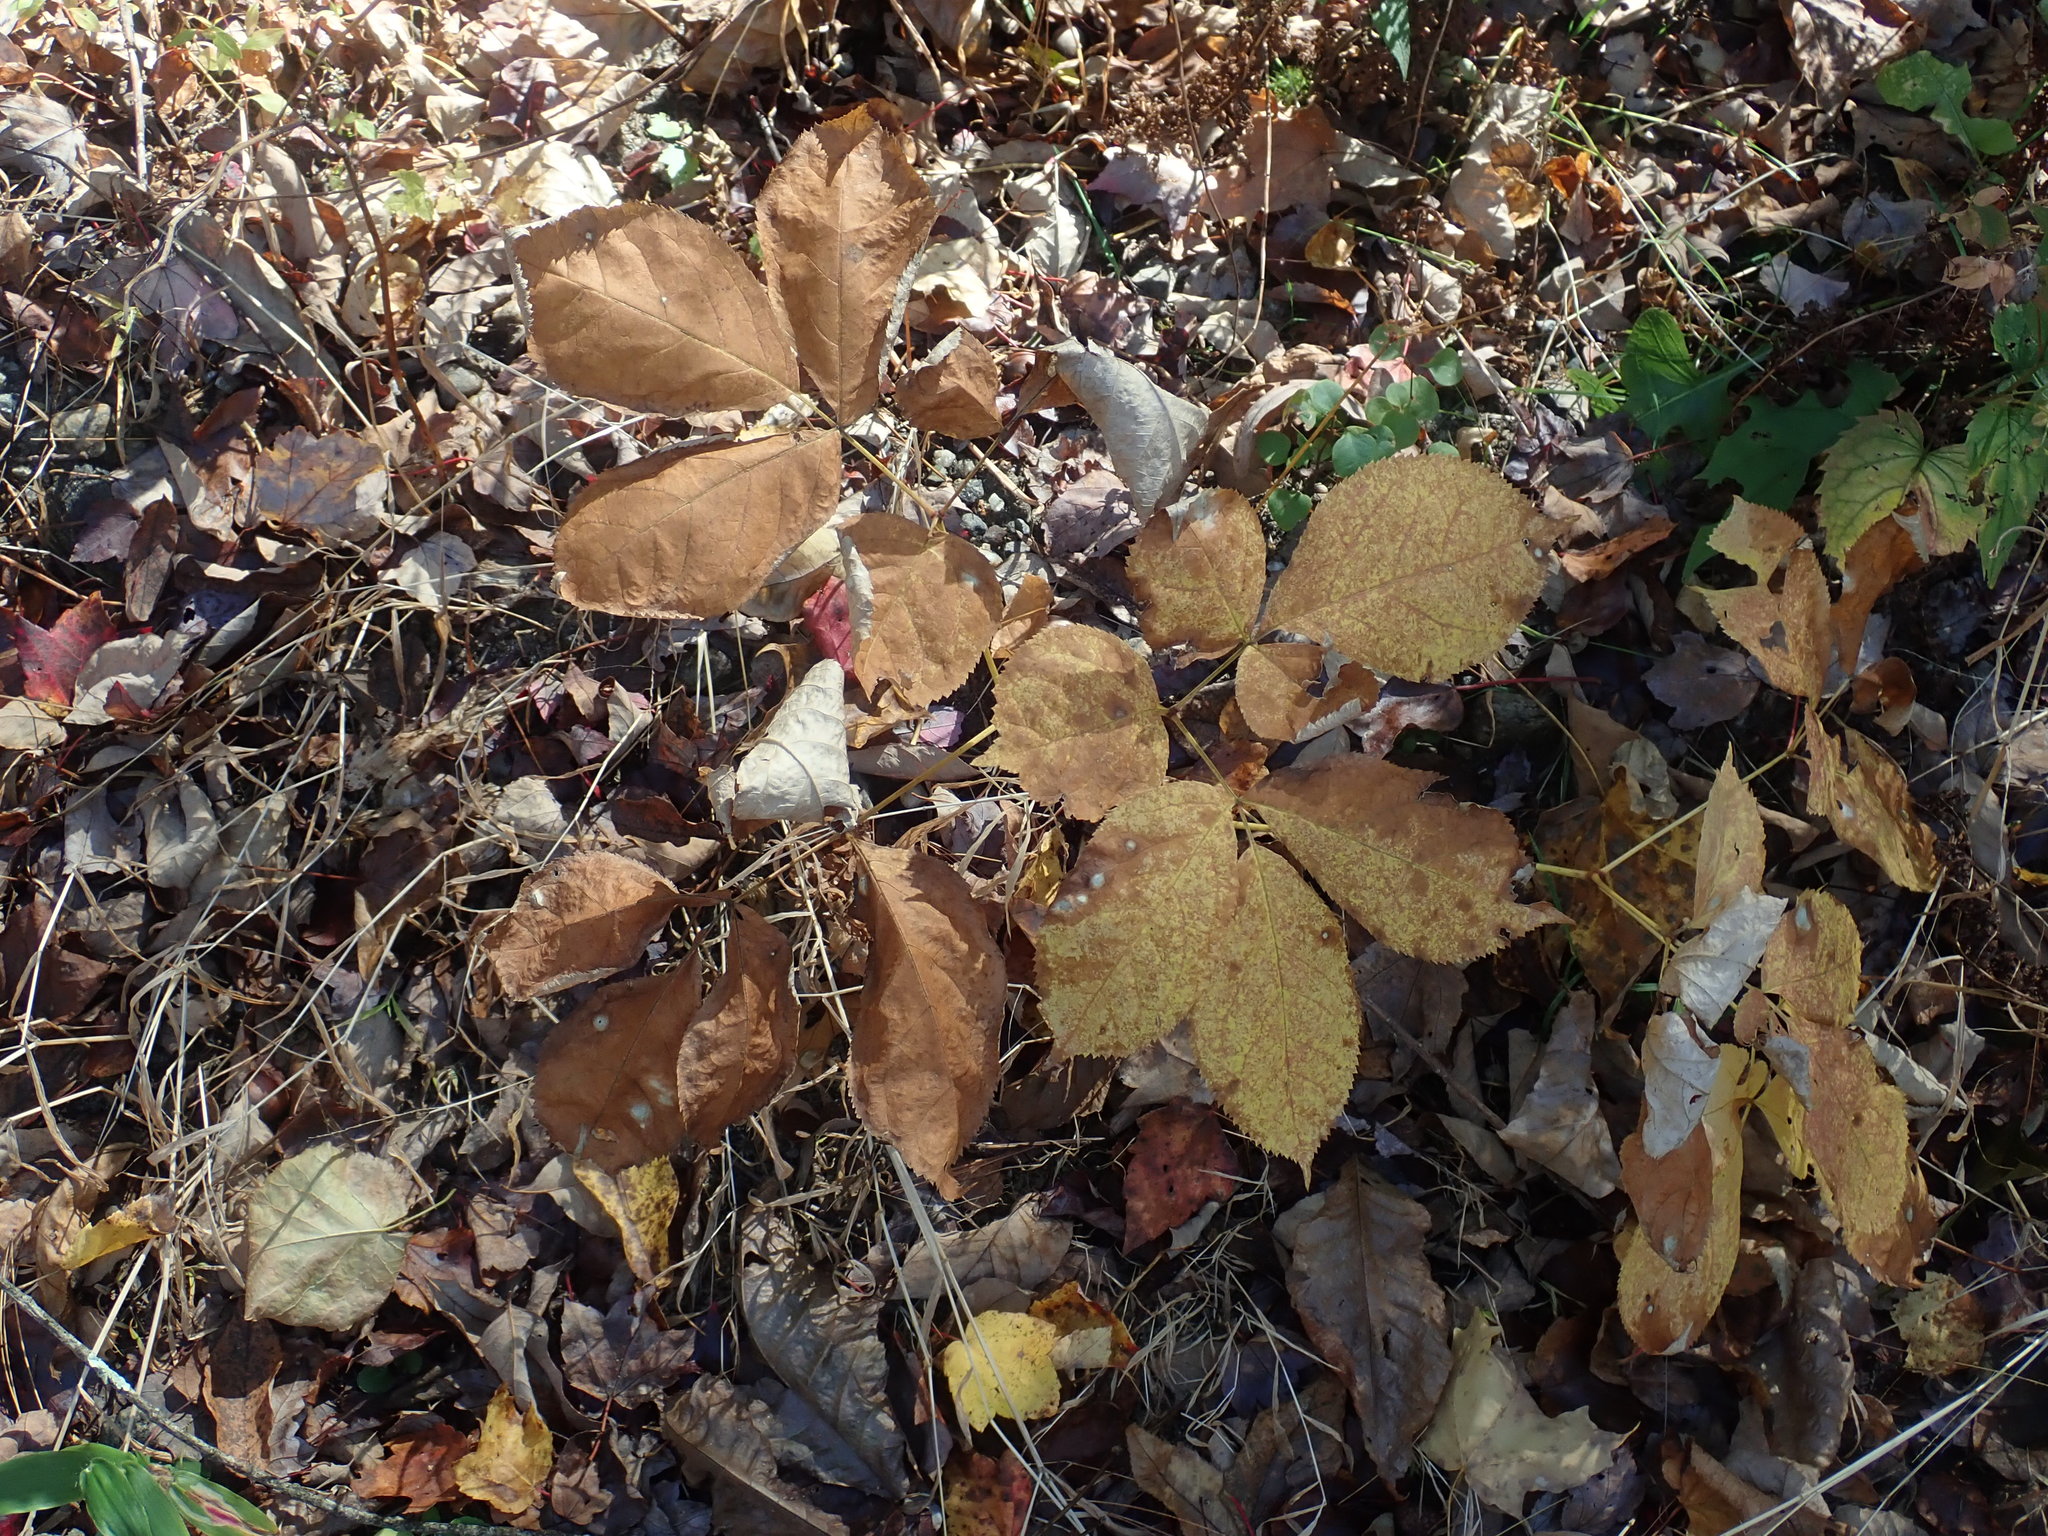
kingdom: Plantae
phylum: Tracheophyta
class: Magnoliopsida
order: Apiales
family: Araliaceae
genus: Aralia
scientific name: Aralia nudicaulis
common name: Wild sarsaparilla
